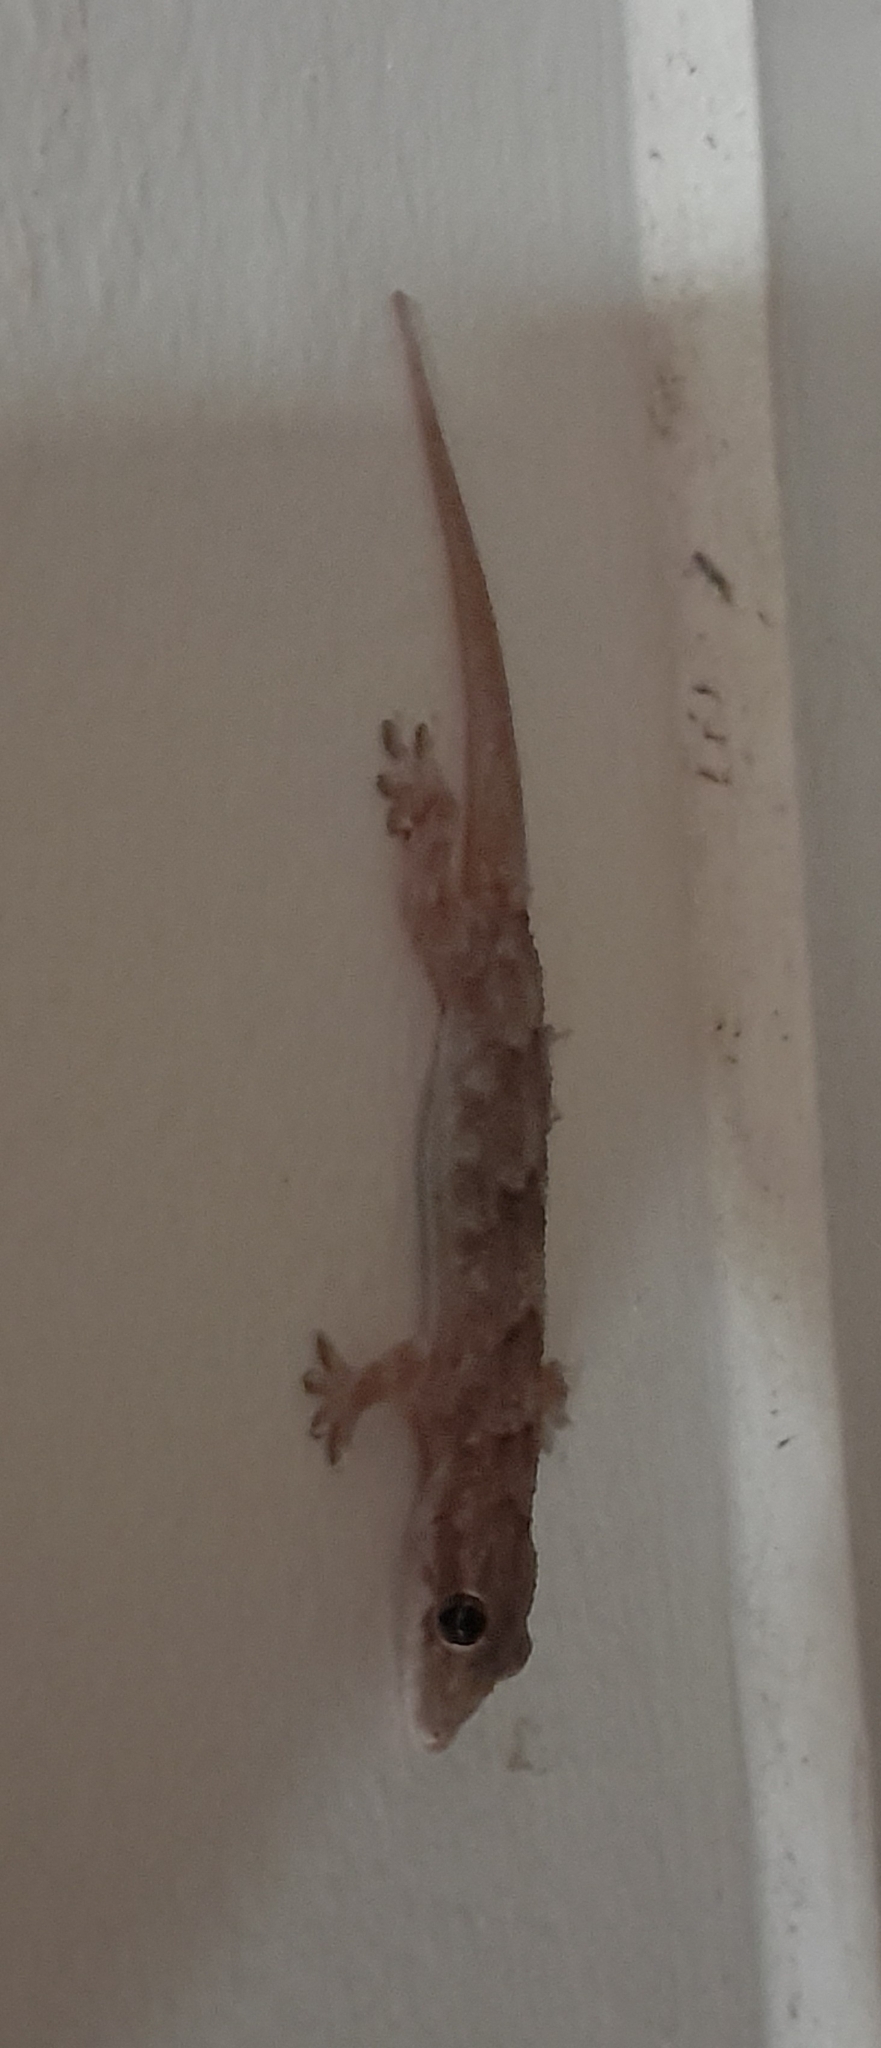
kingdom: Animalia
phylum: Chordata
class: Squamata
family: Gekkonidae
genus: Hemidactylus
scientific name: Hemidactylus mabouia
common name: House gecko
